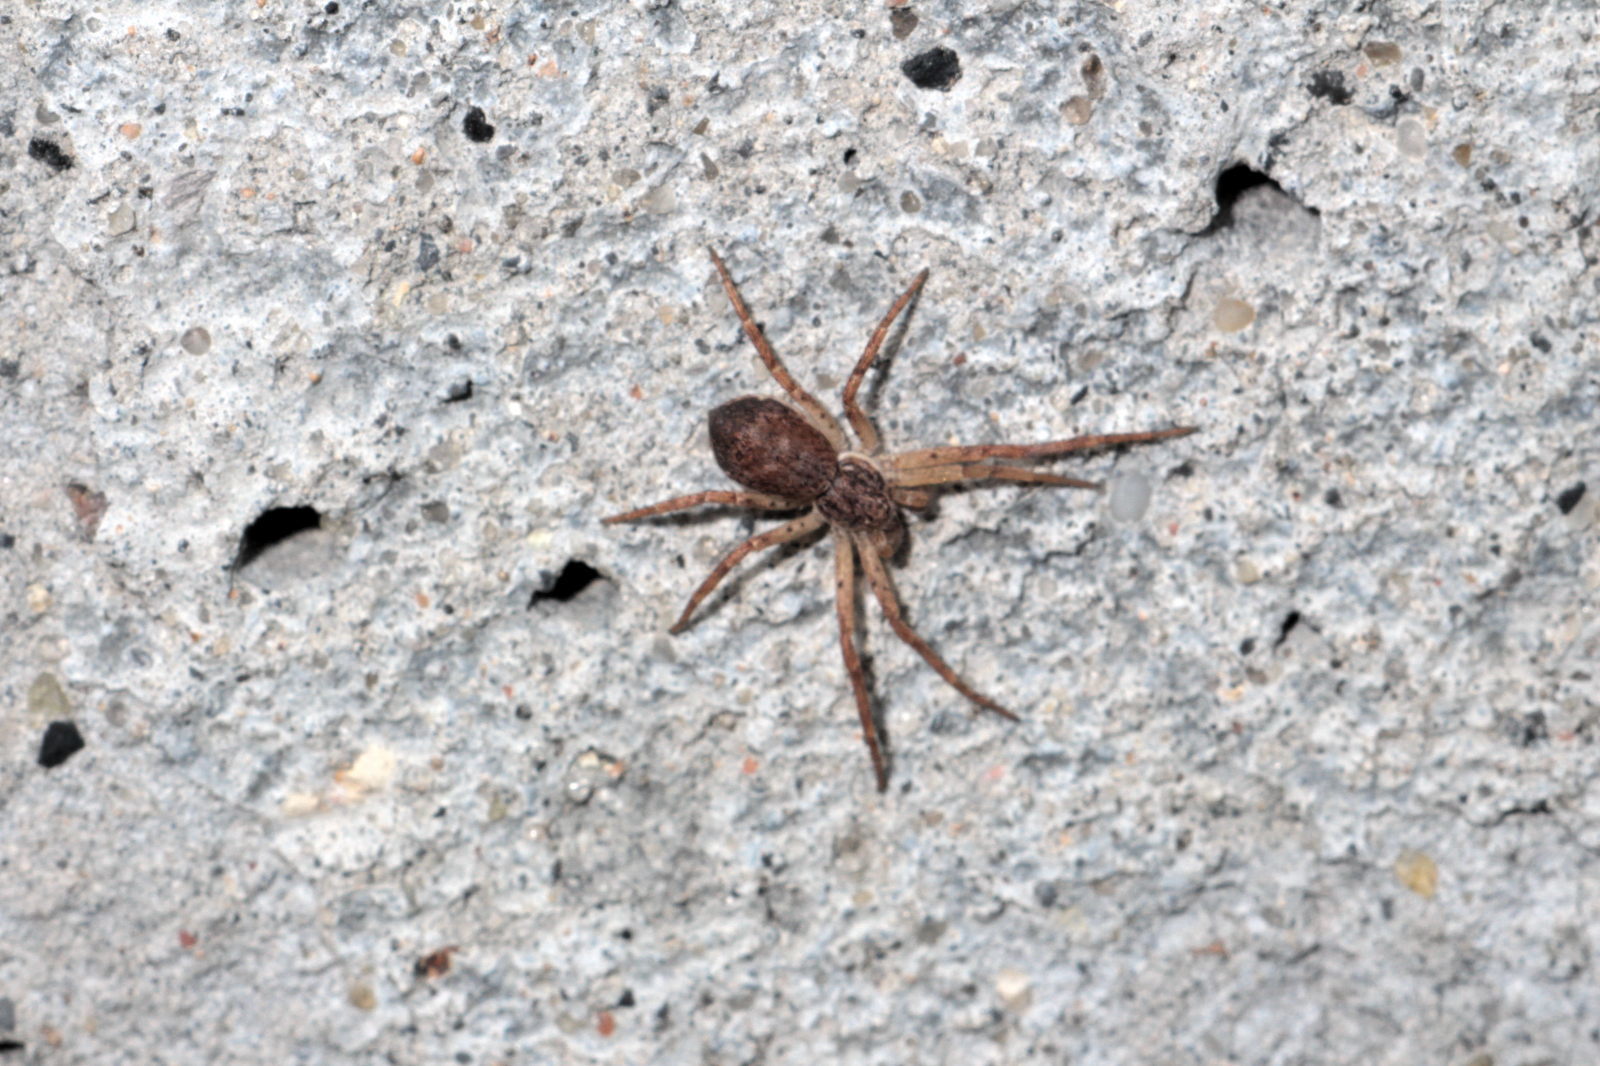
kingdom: Animalia
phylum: Arthropoda
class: Arachnida
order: Araneae
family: Philodromidae
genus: Philodromus
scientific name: Philodromus dispar
